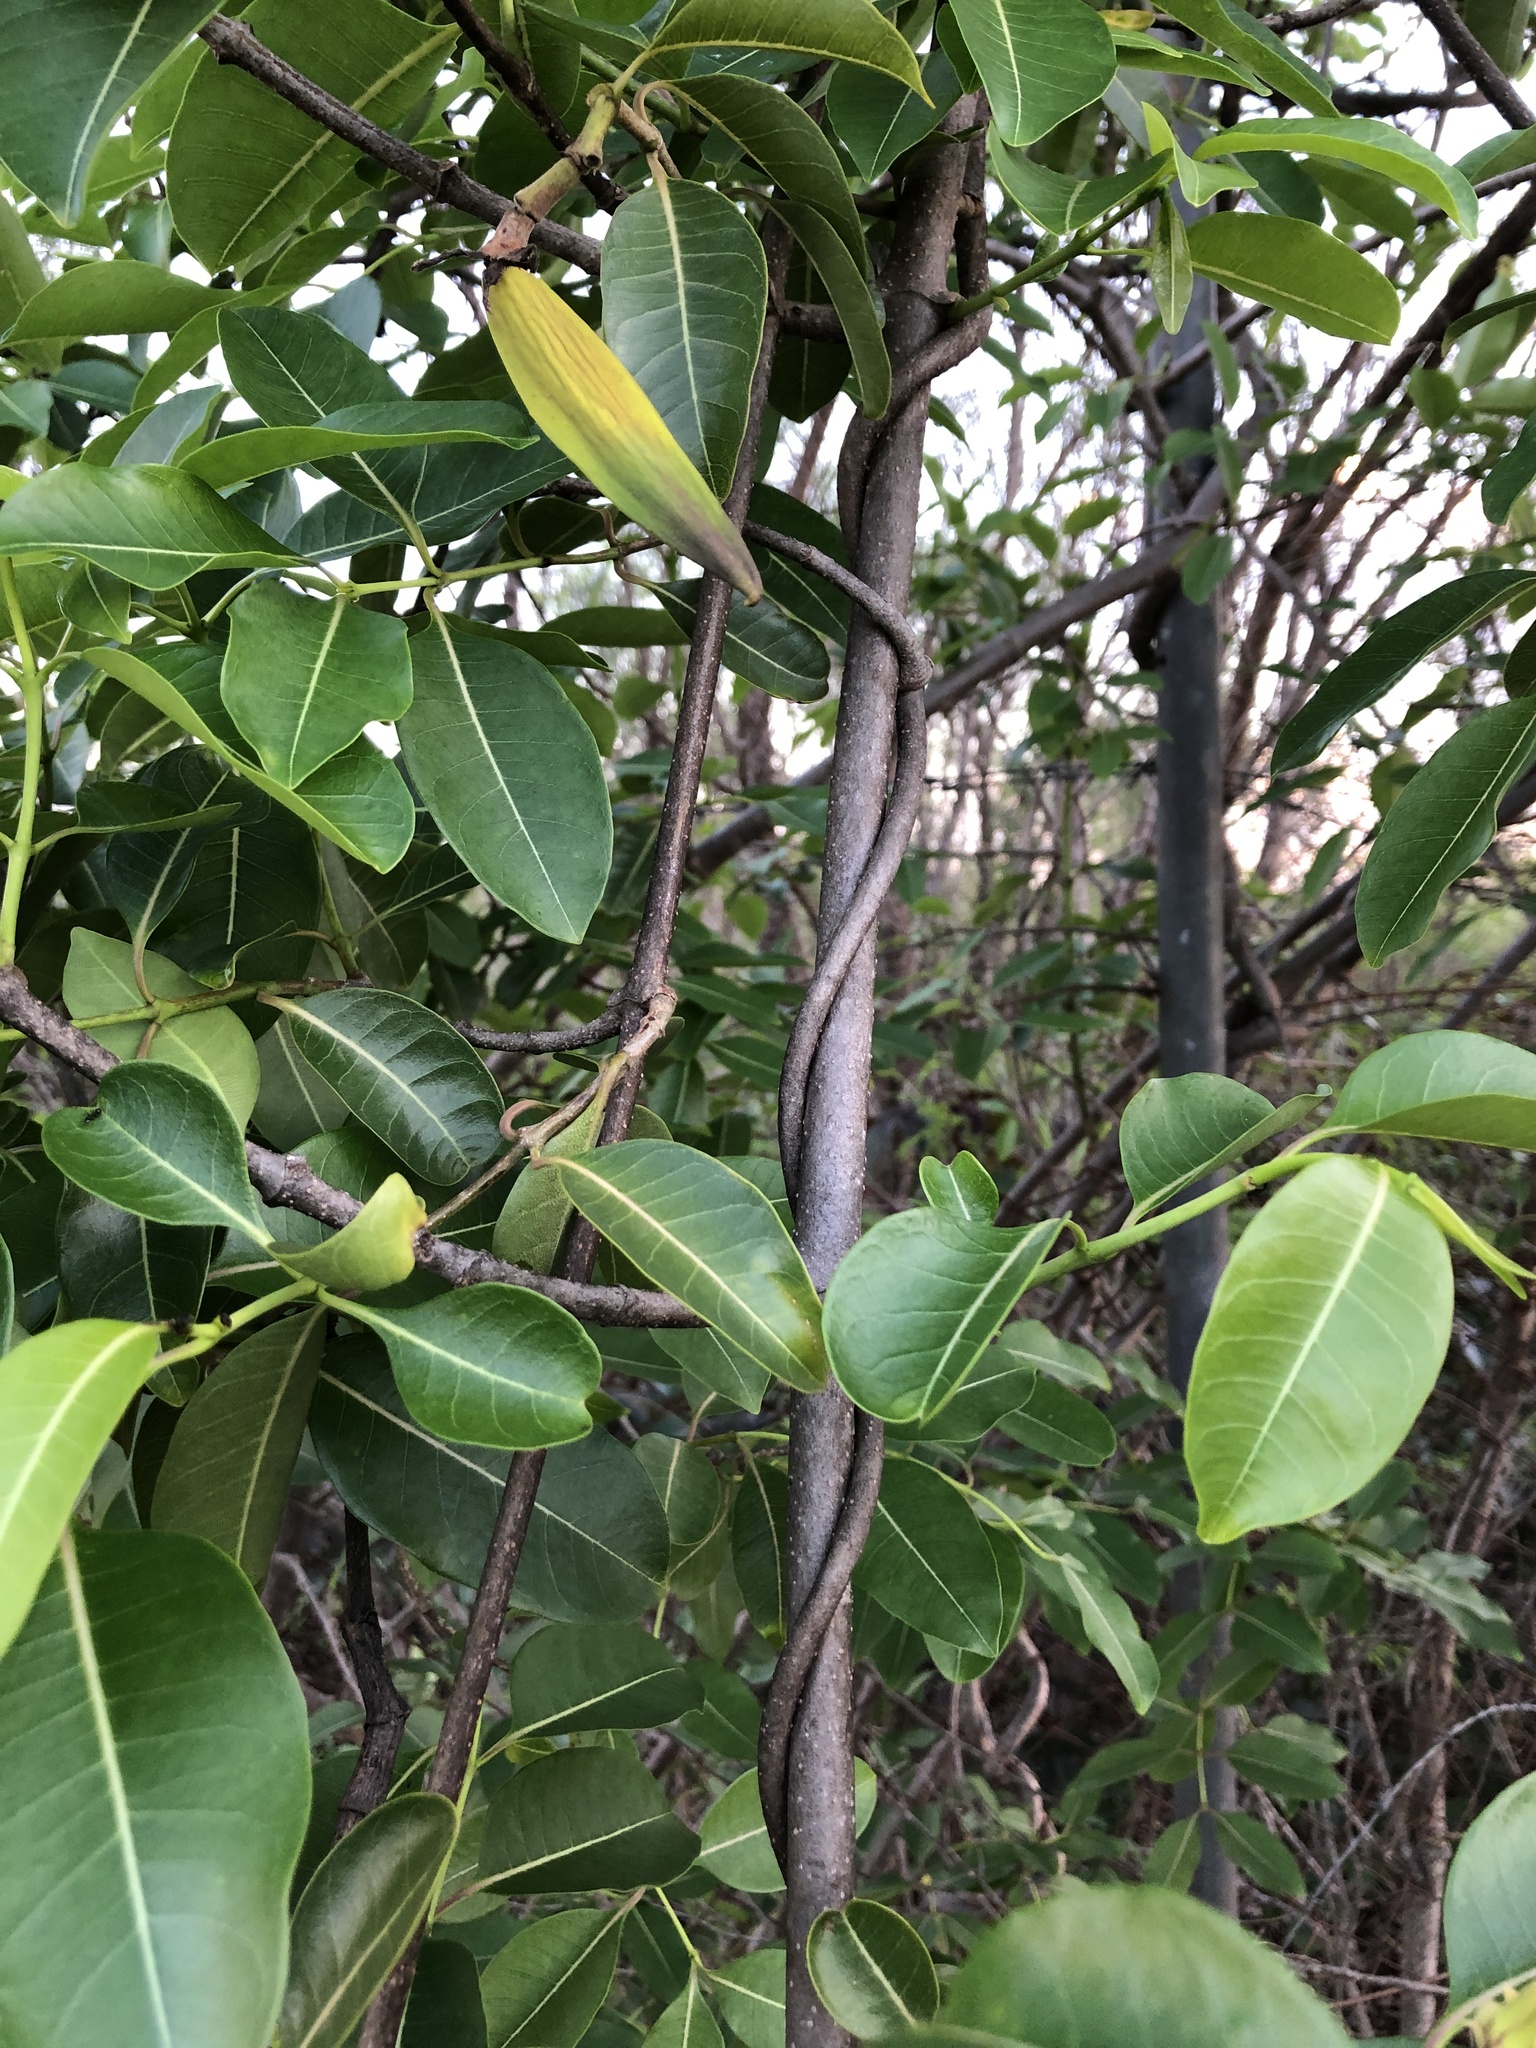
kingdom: Plantae
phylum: Tracheophyta
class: Magnoliopsida
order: Gentianales
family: Apocynaceae
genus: Cryptostegia
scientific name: Cryptostegia grandiflora
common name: Palay rubbervine
